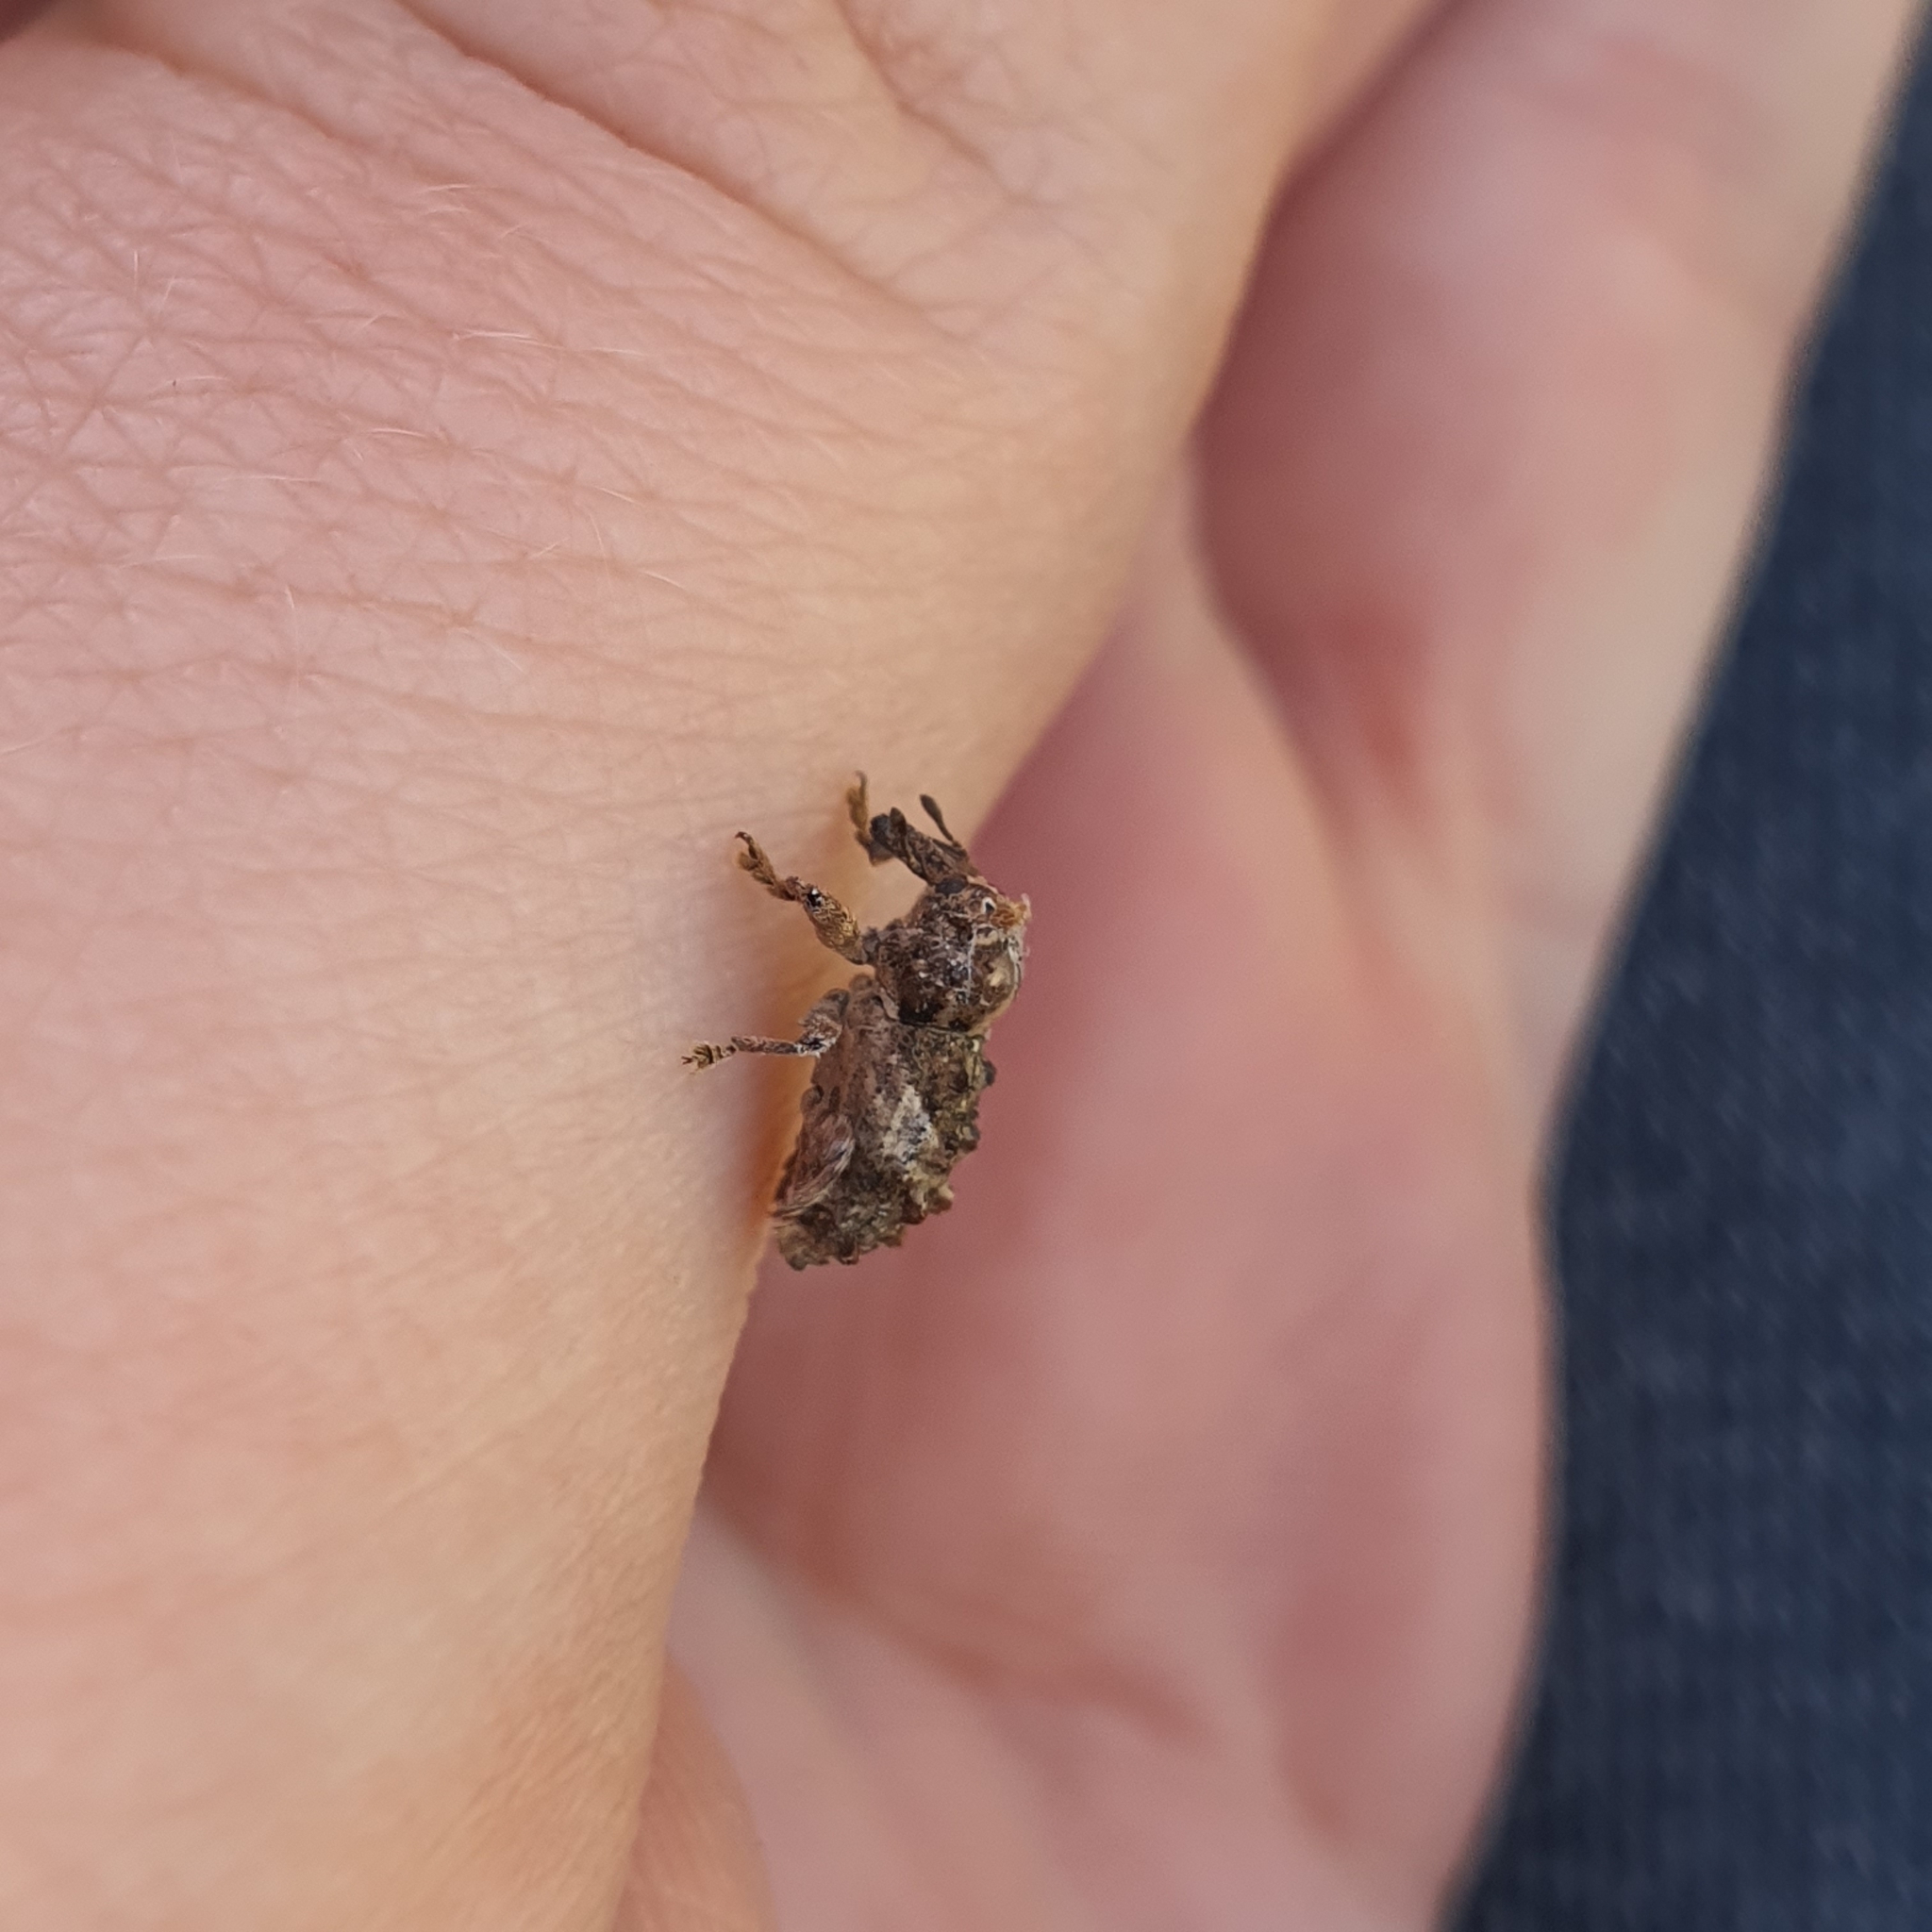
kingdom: Animalia
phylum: Arthropoda
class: Insecta
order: Coleoptera
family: Curculionidae
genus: Orthorhinus
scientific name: Orthorhinus klugii
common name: Vine weevil
